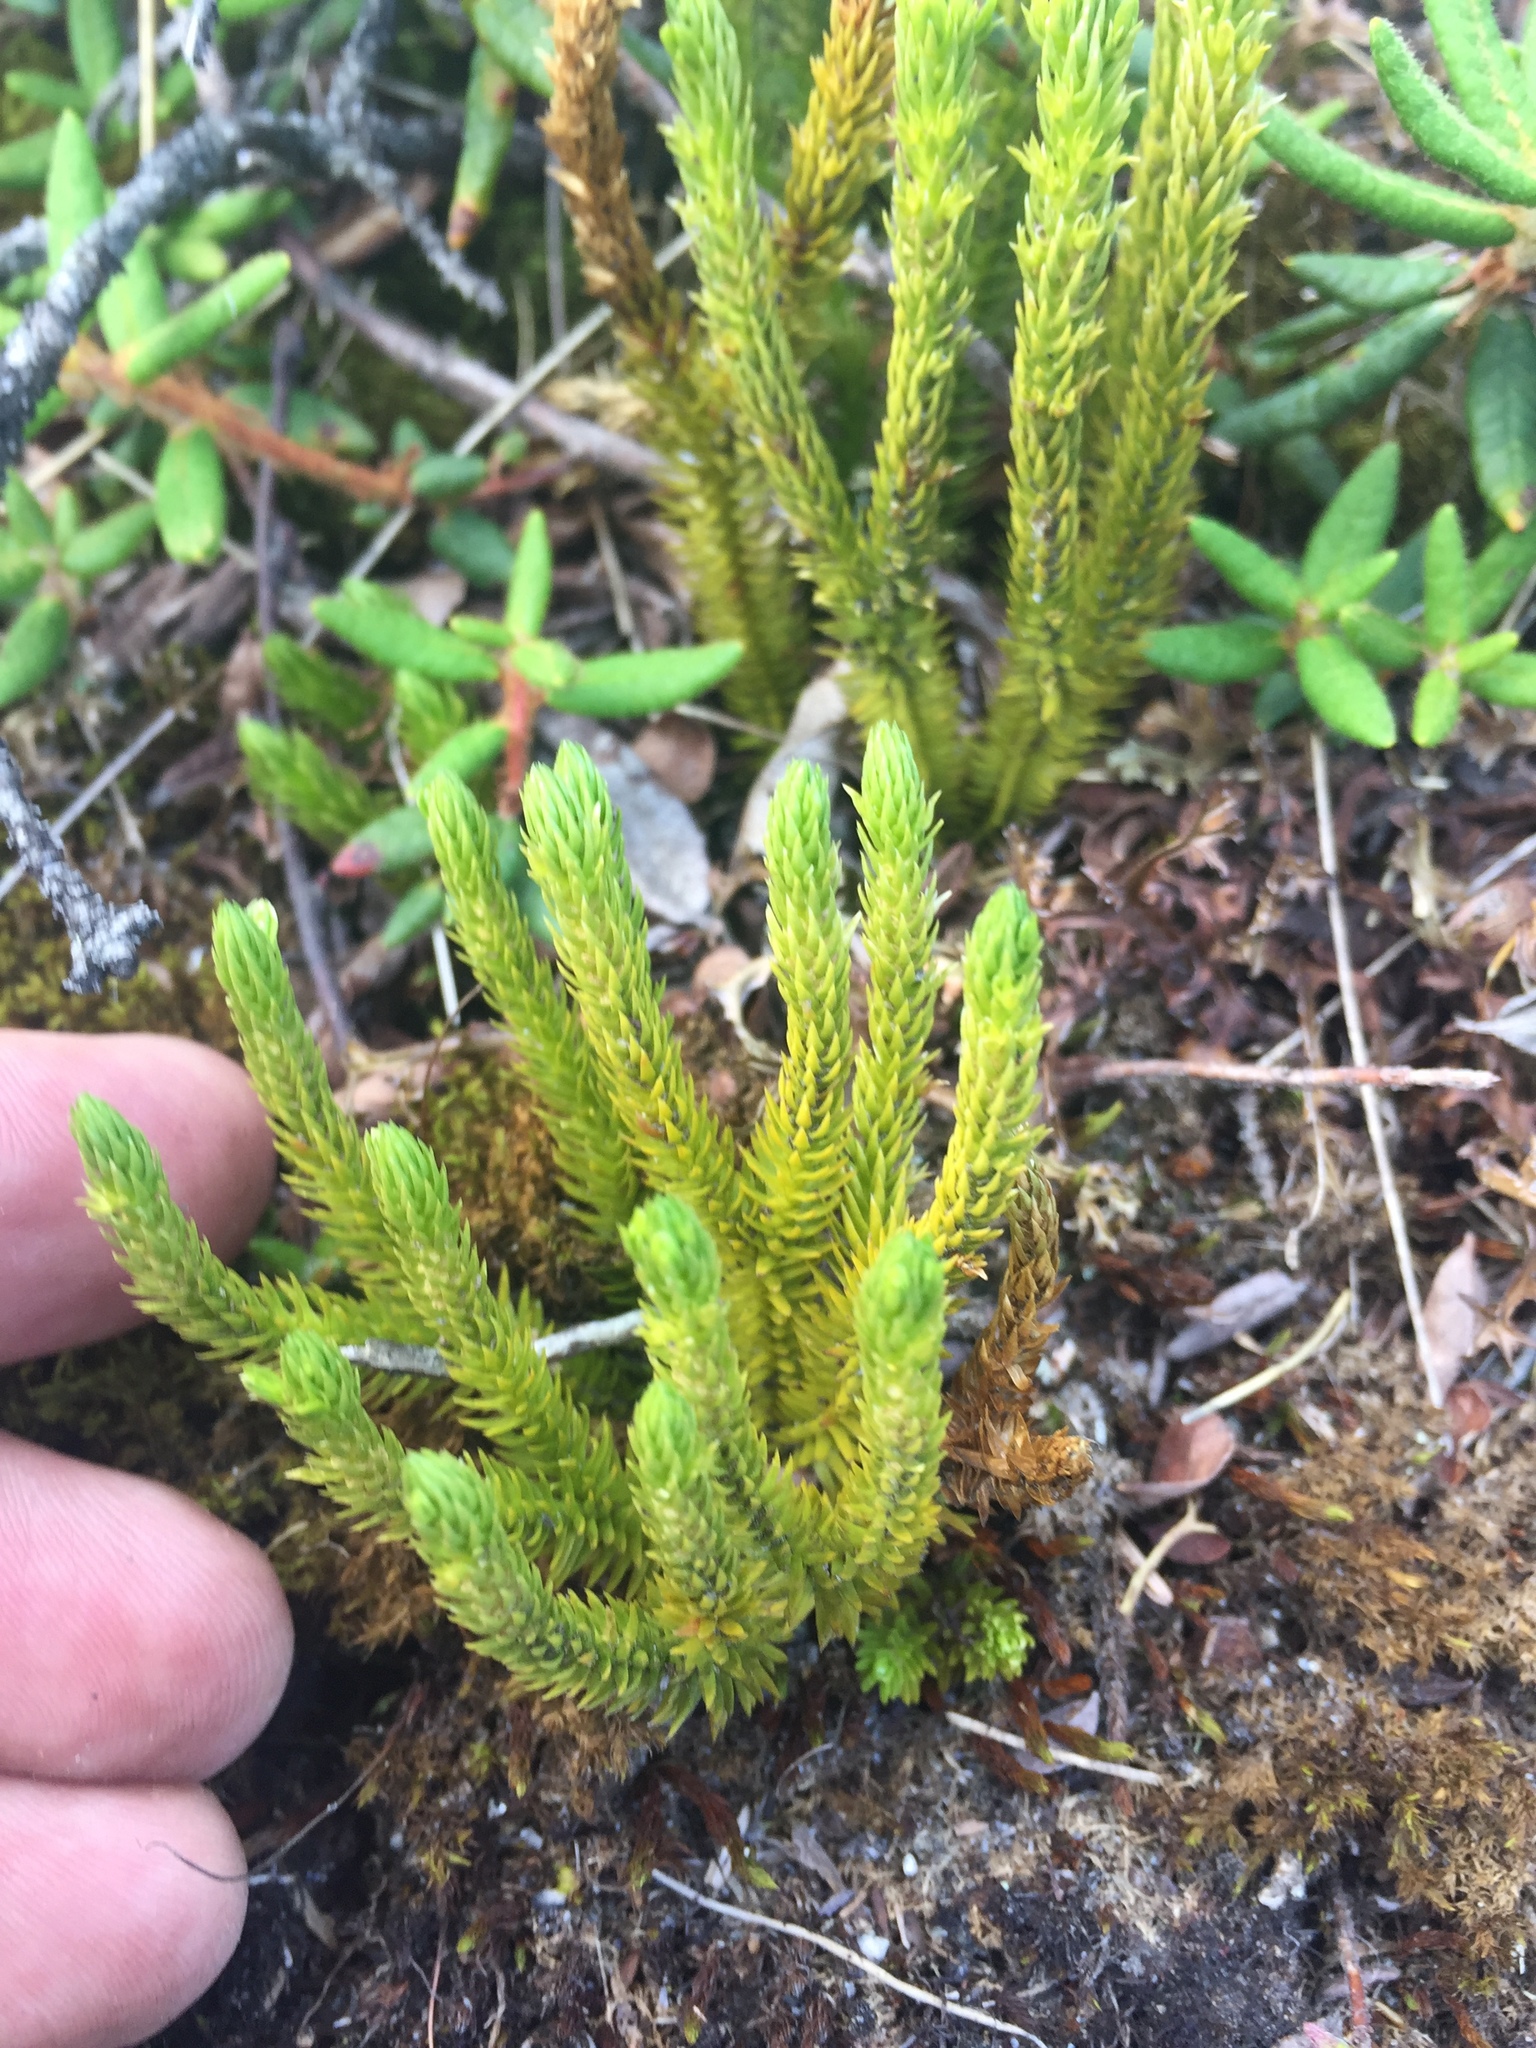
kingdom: Plantae
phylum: Tracheophyta
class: Lycopodiopsida
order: Lycopodiales
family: Lycopodiaceae
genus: Huperzia
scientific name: Huperzia selago
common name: Northern firmoss
